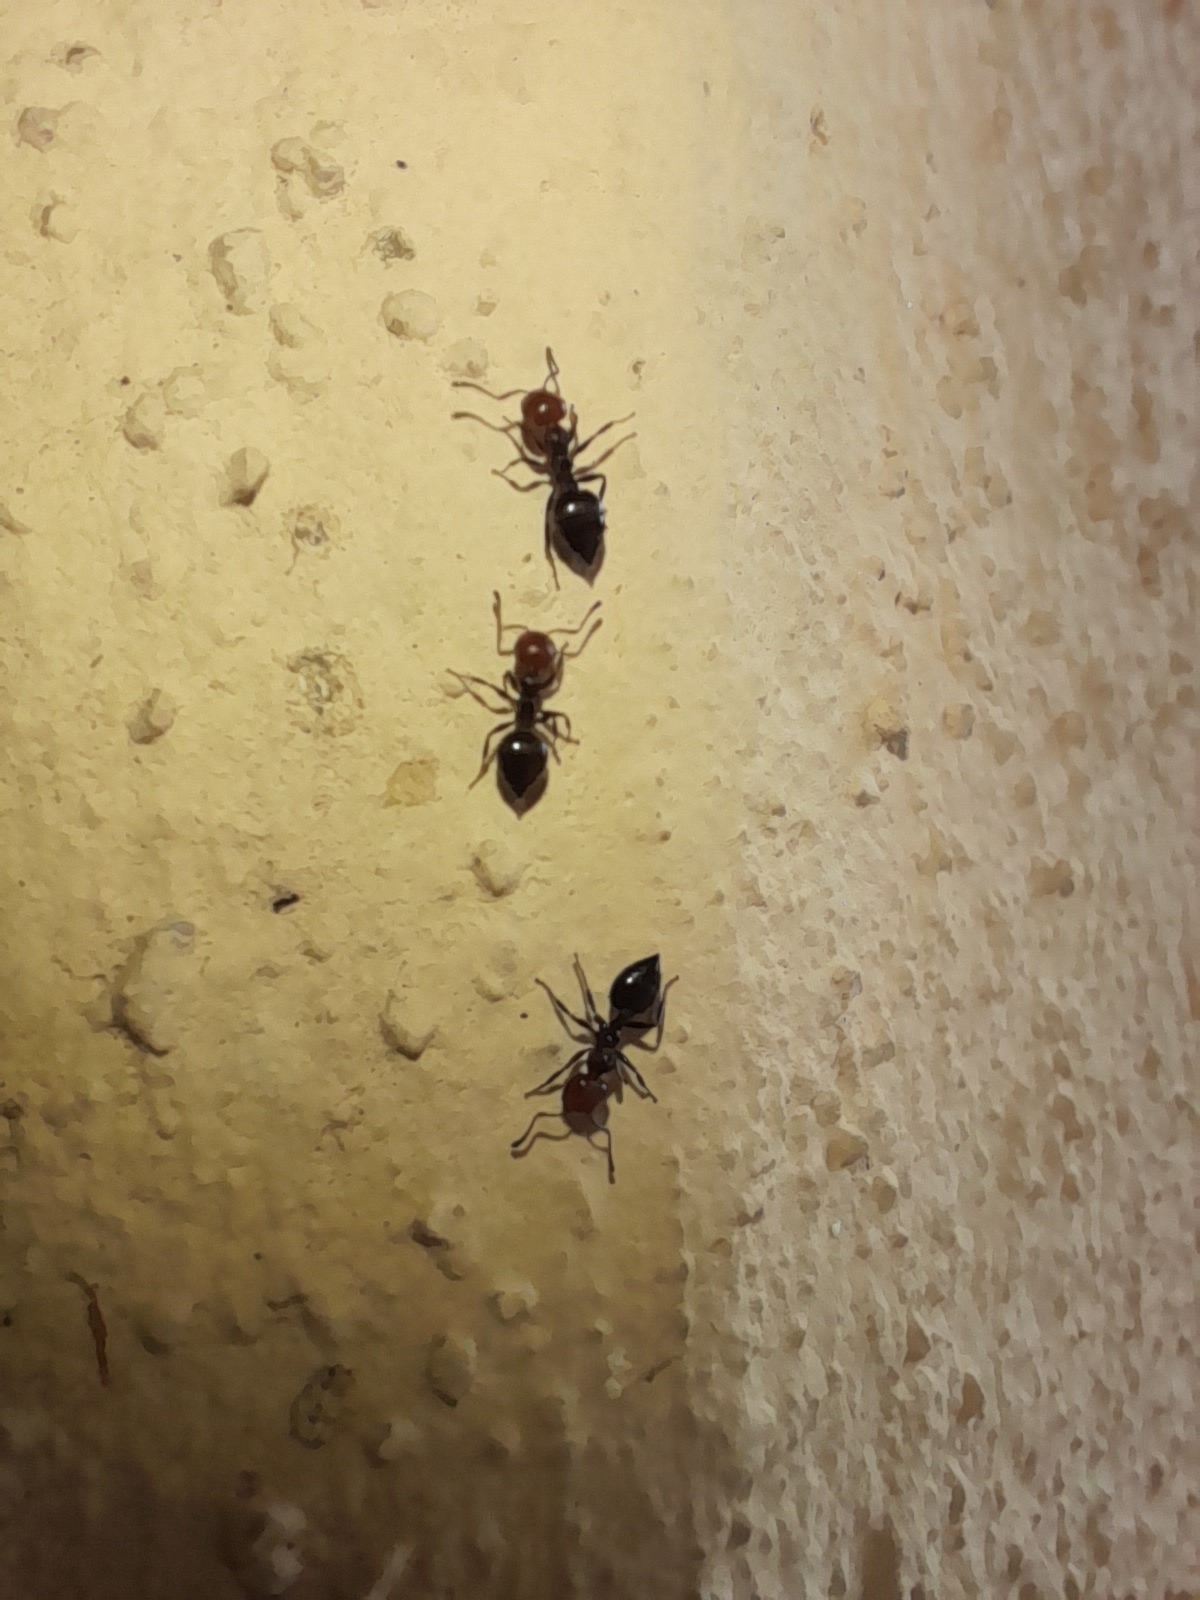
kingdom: Animalia
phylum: Arthropoda
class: Insecta
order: Hymenoptera
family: Formicidae
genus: Crematogaster
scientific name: Crematogaster scutellaris
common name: Fourmi du liège
